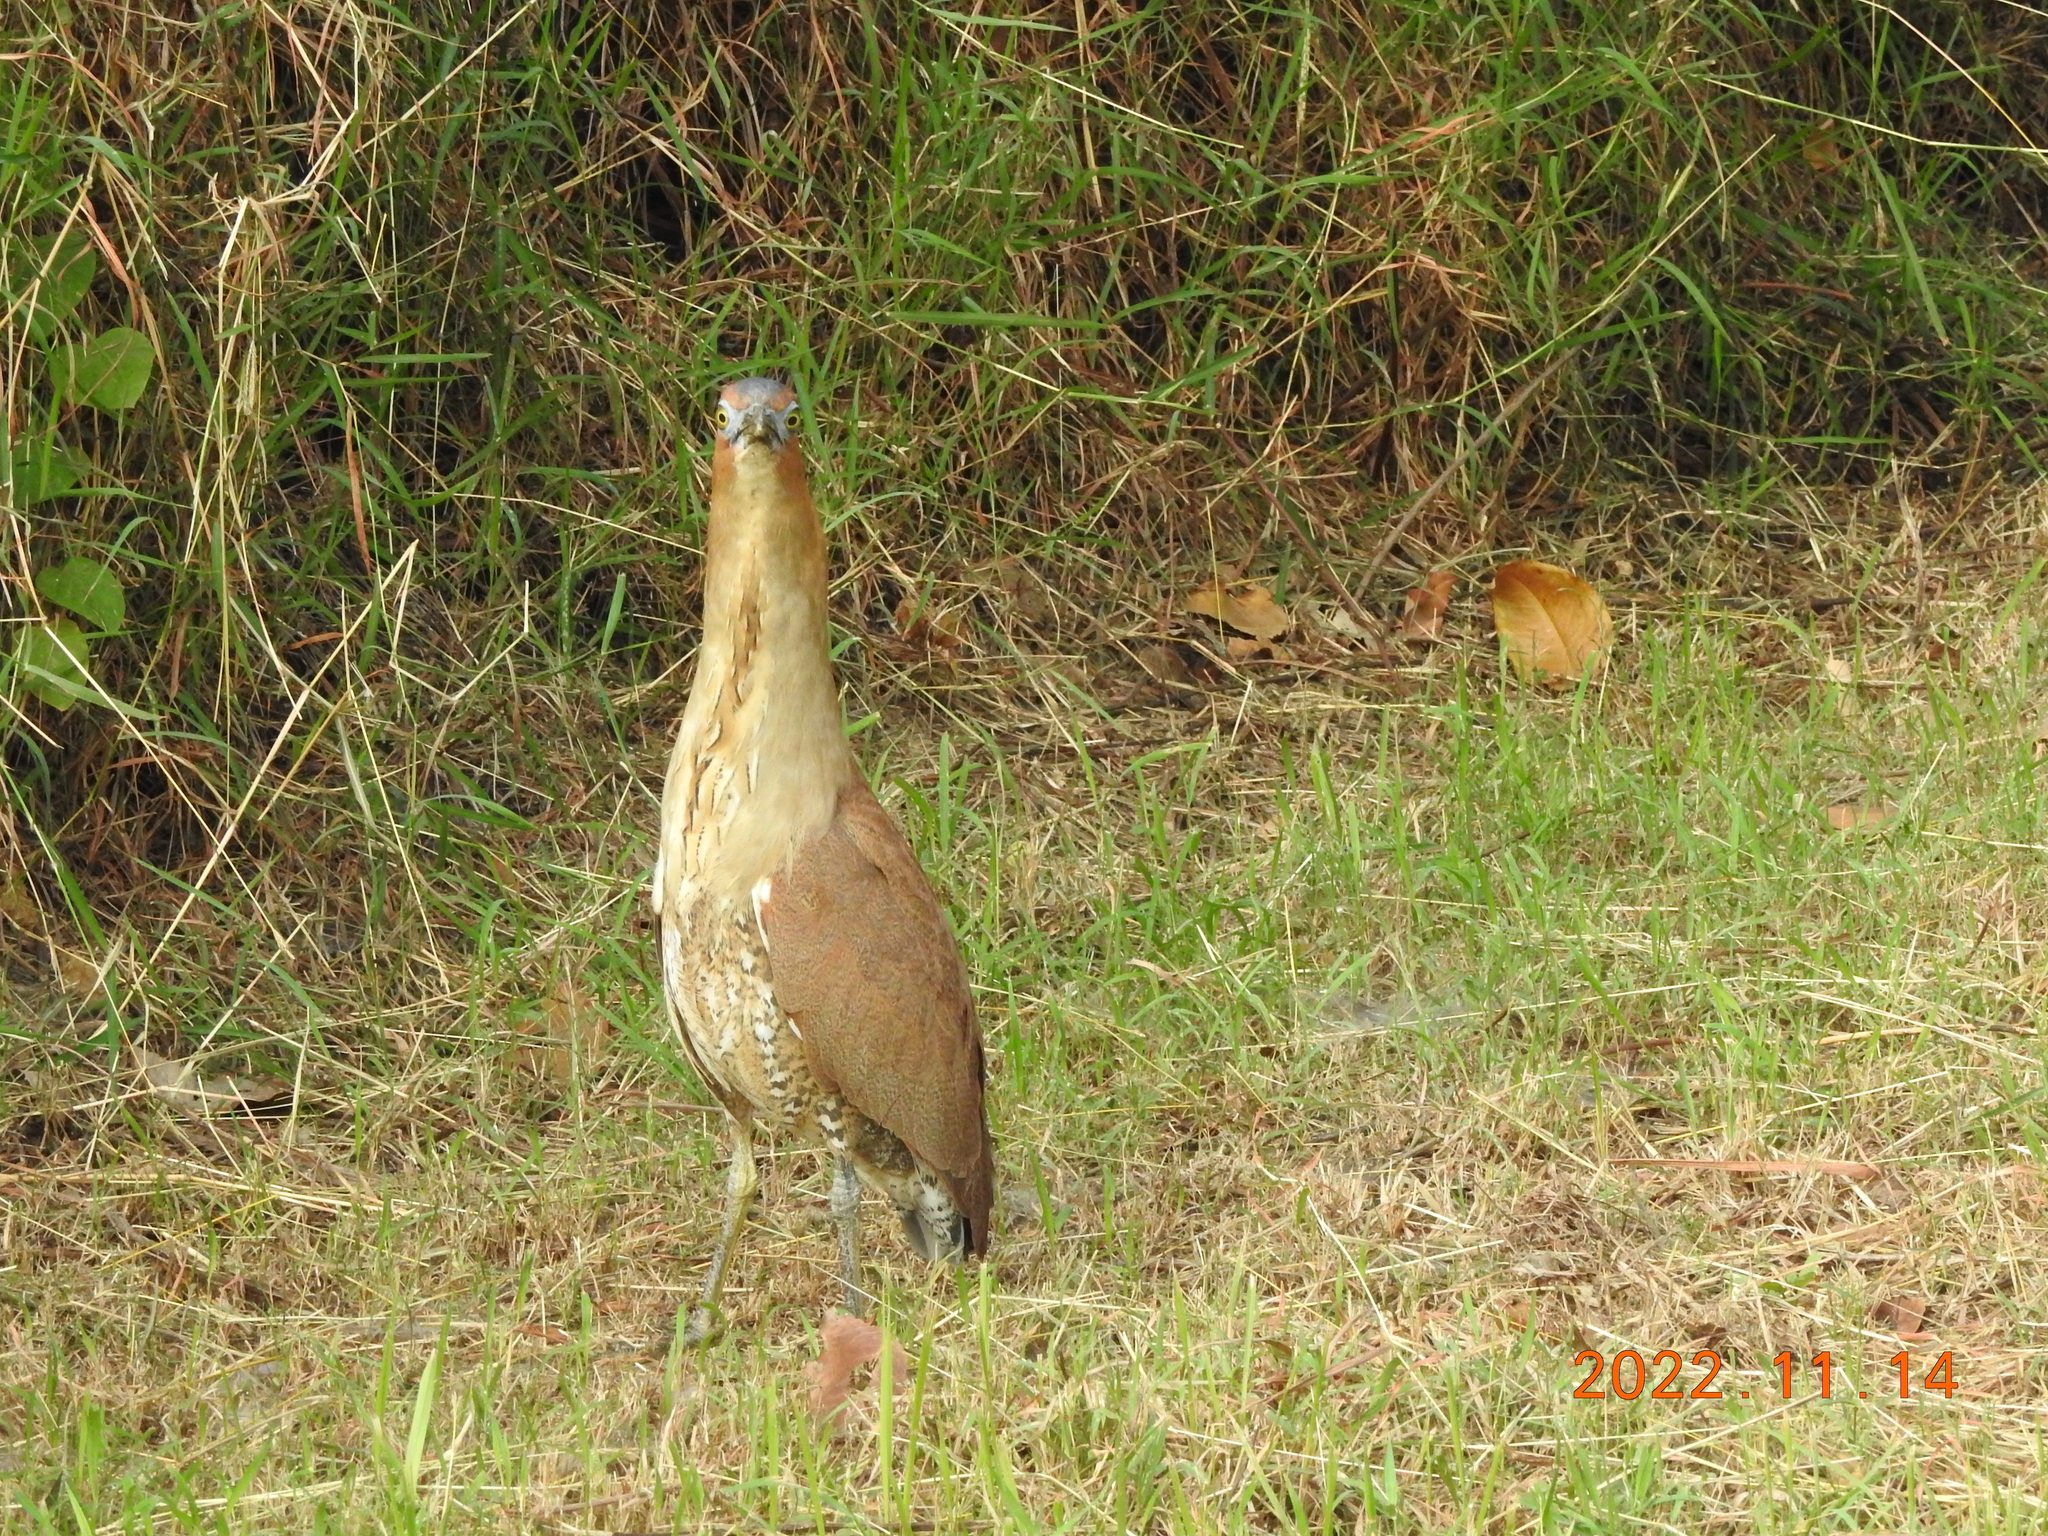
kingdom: Animalia
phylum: Chordata
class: Aves
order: Pelecaniformes
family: Ardeidae
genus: Gorsachius
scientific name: Gorsachius melanolophus
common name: Malayan night heron
